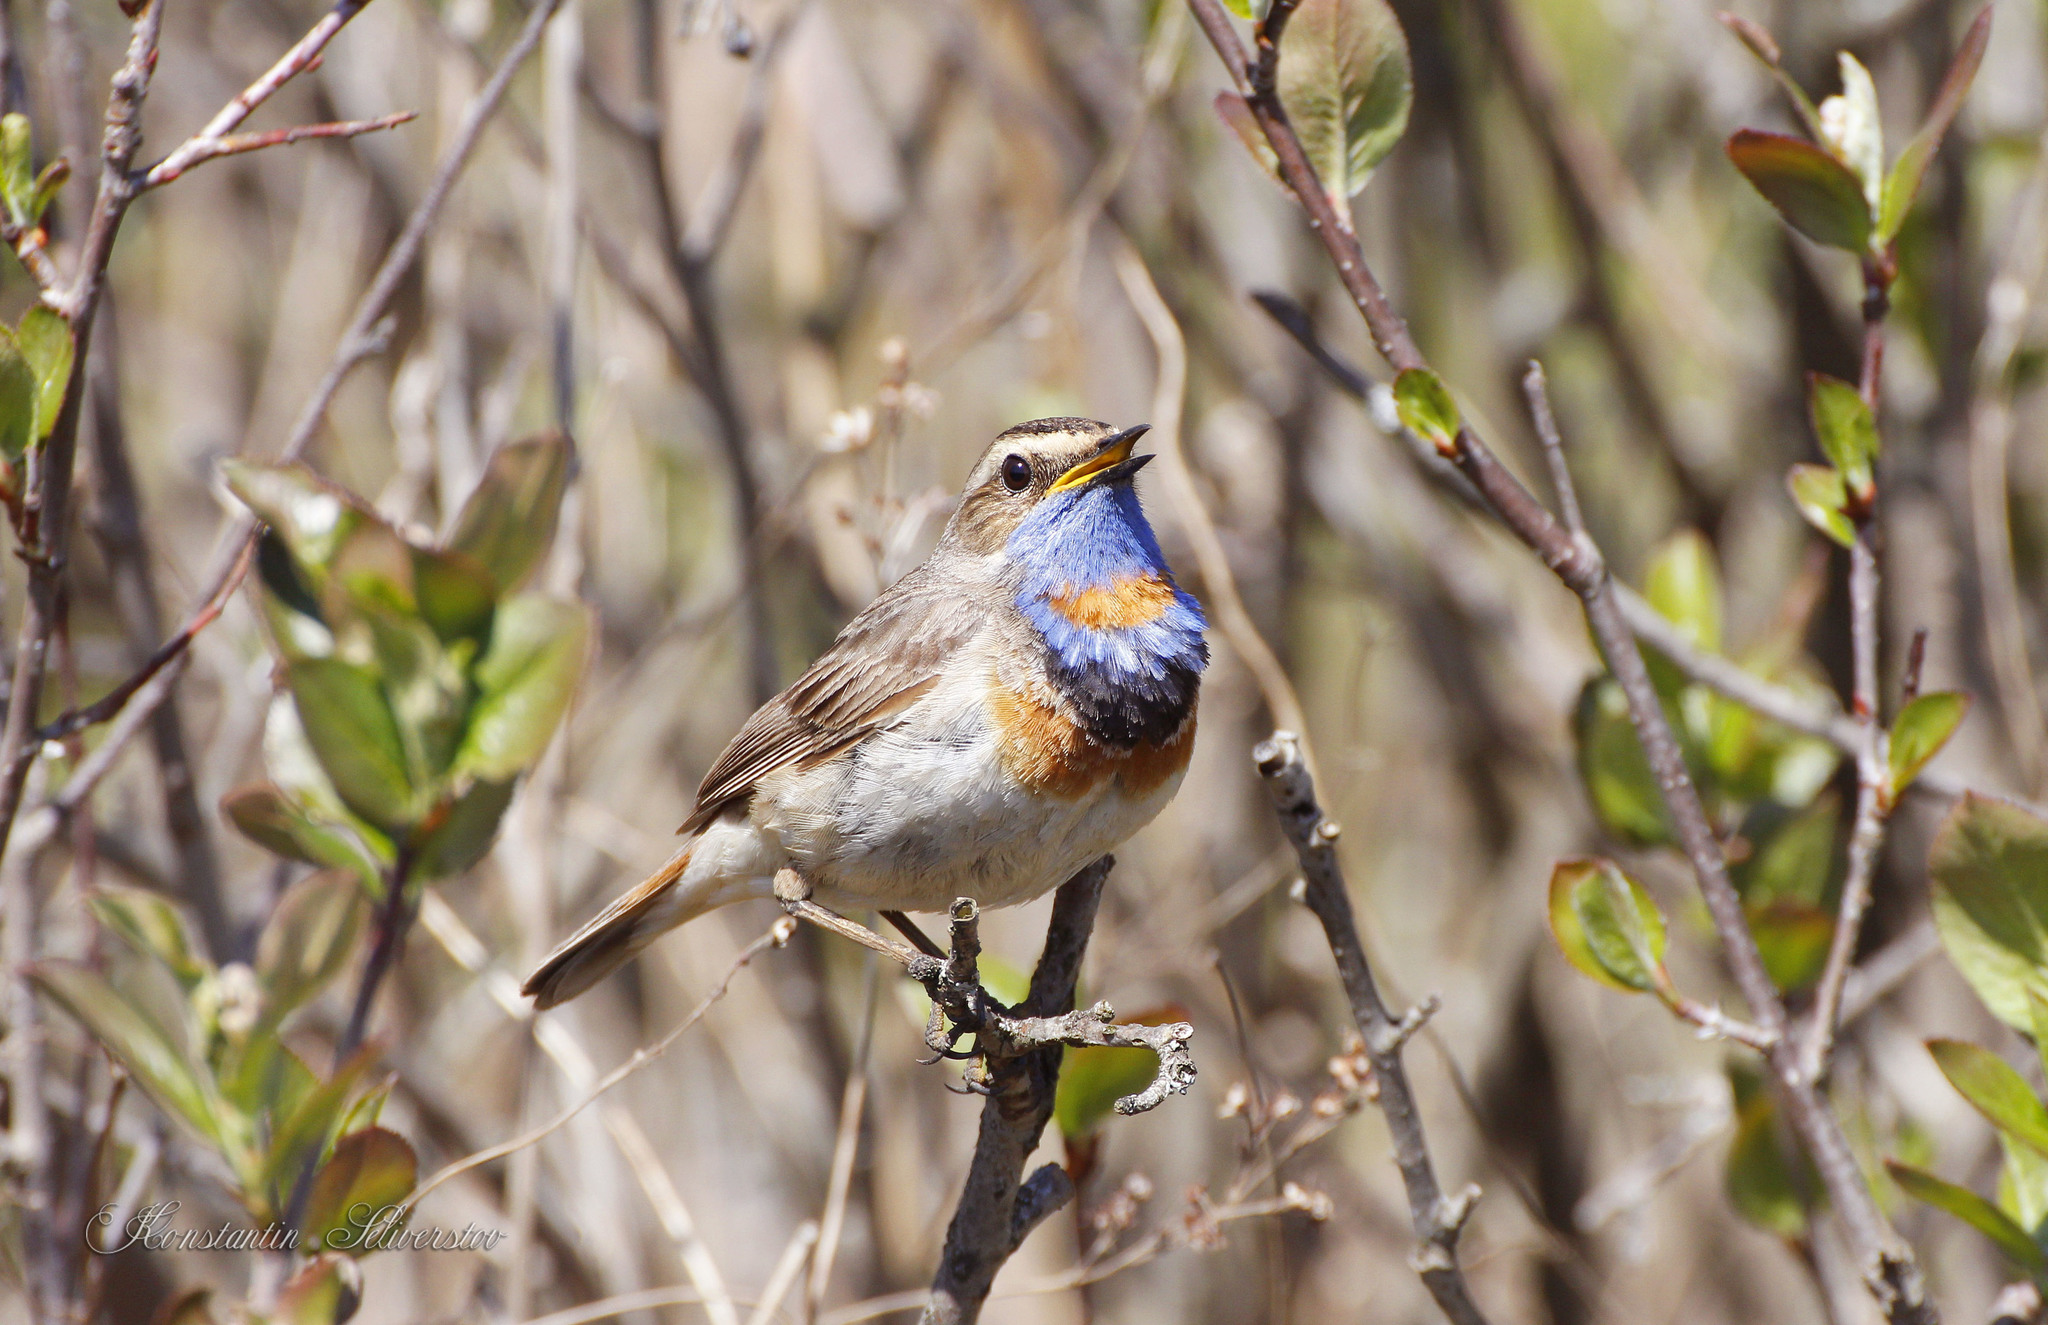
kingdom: Animalia
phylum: Chordata
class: Aves
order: Passeriformes
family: Muscicapidae
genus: Luscinia
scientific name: Luscinia svecica
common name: Bluethroat
